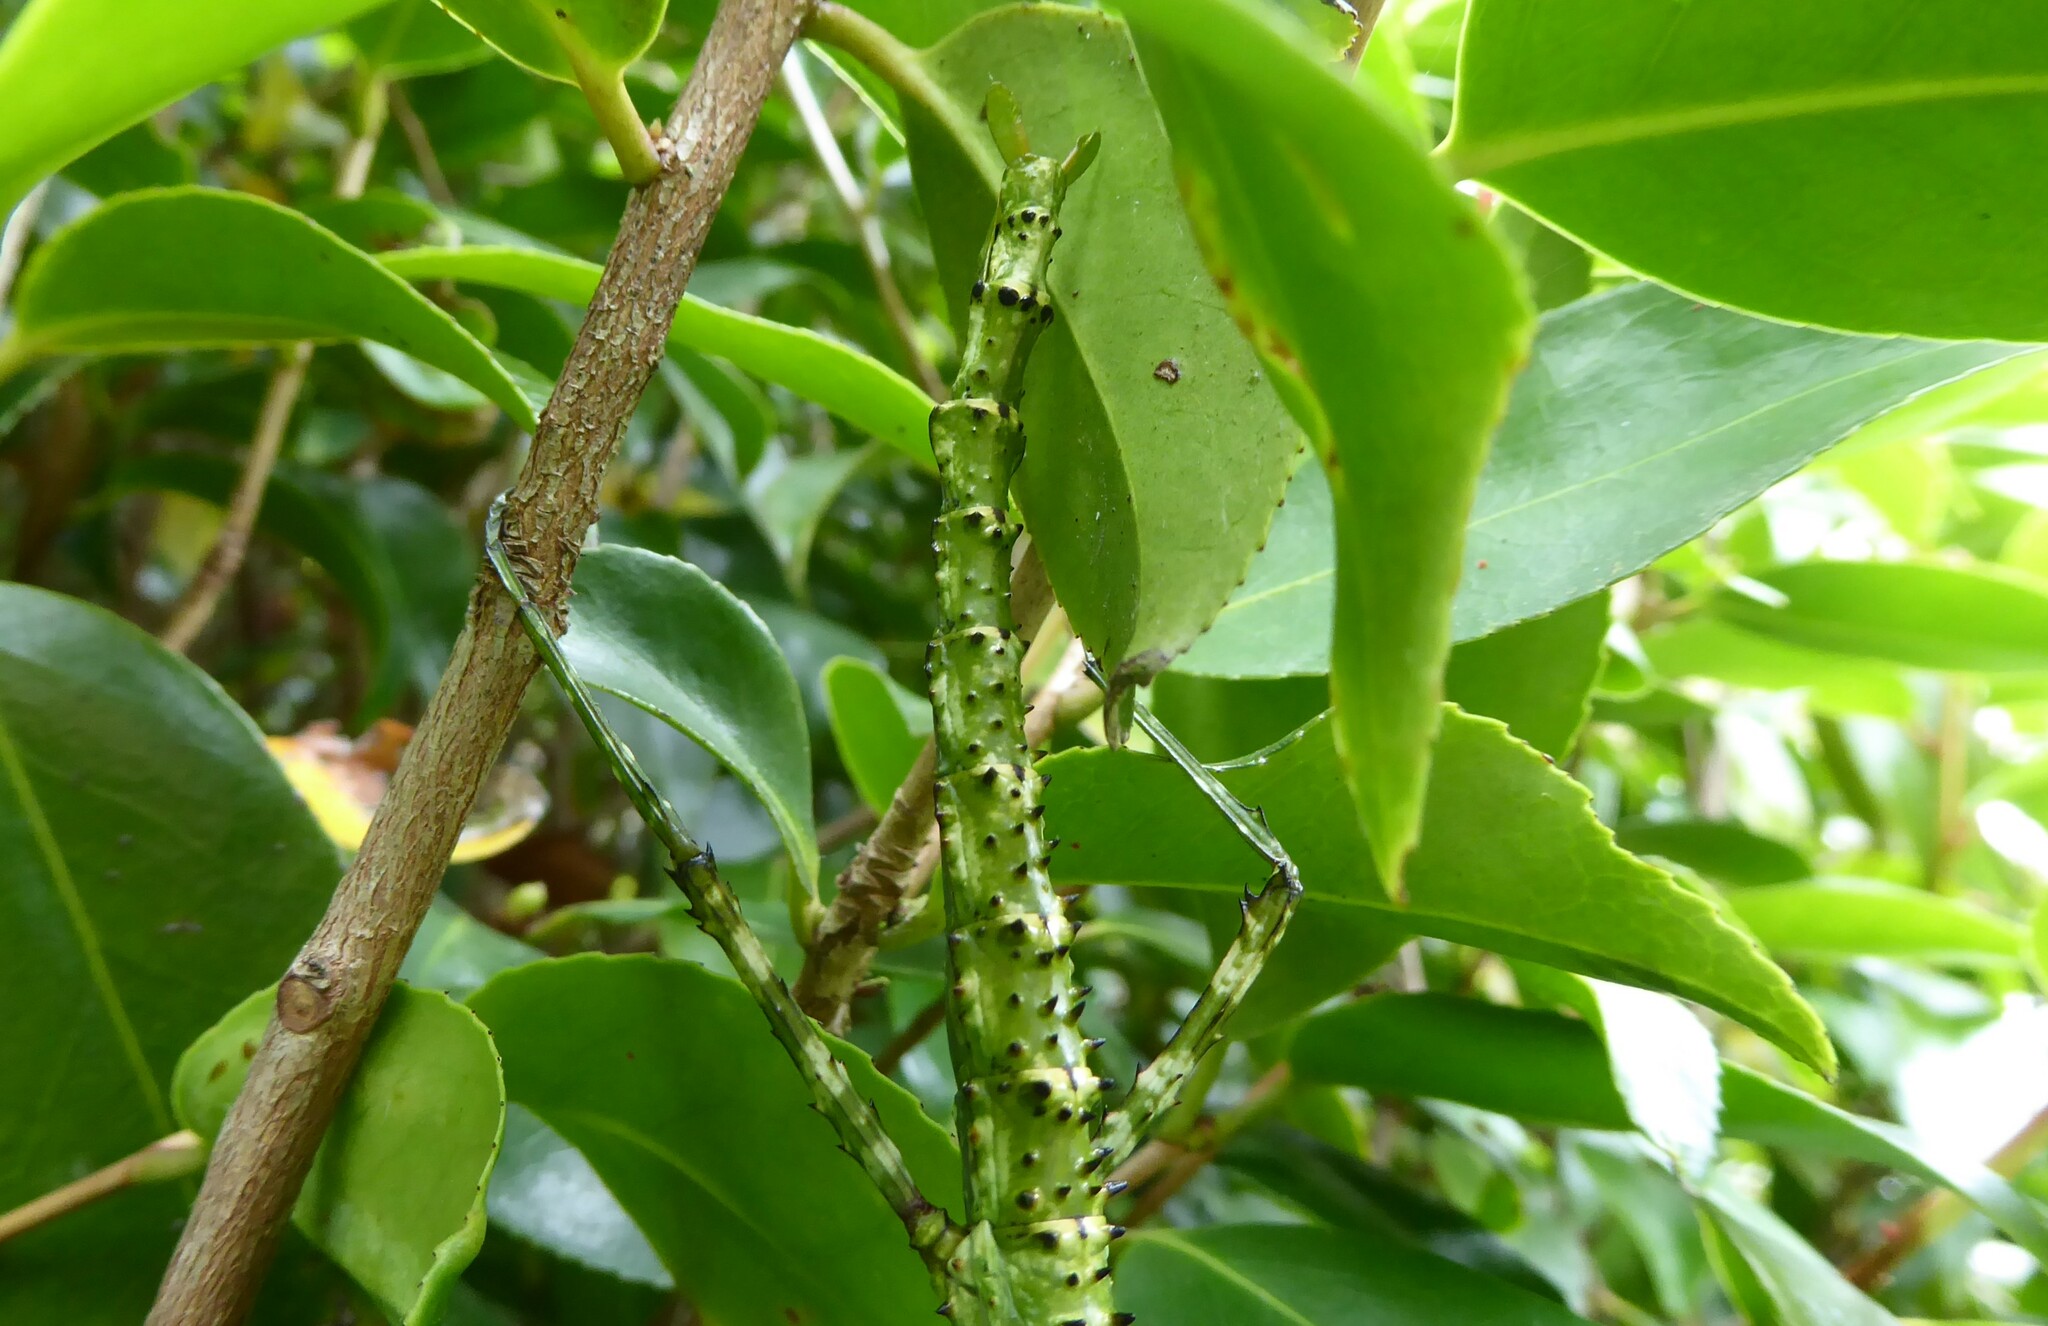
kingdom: Animalia
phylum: Arthropoda
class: Insecta
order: Phasmida
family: Phasmatidae
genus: Acanthoxyla
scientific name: Acanthoxyla prasina
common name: Black-spined stick insect
